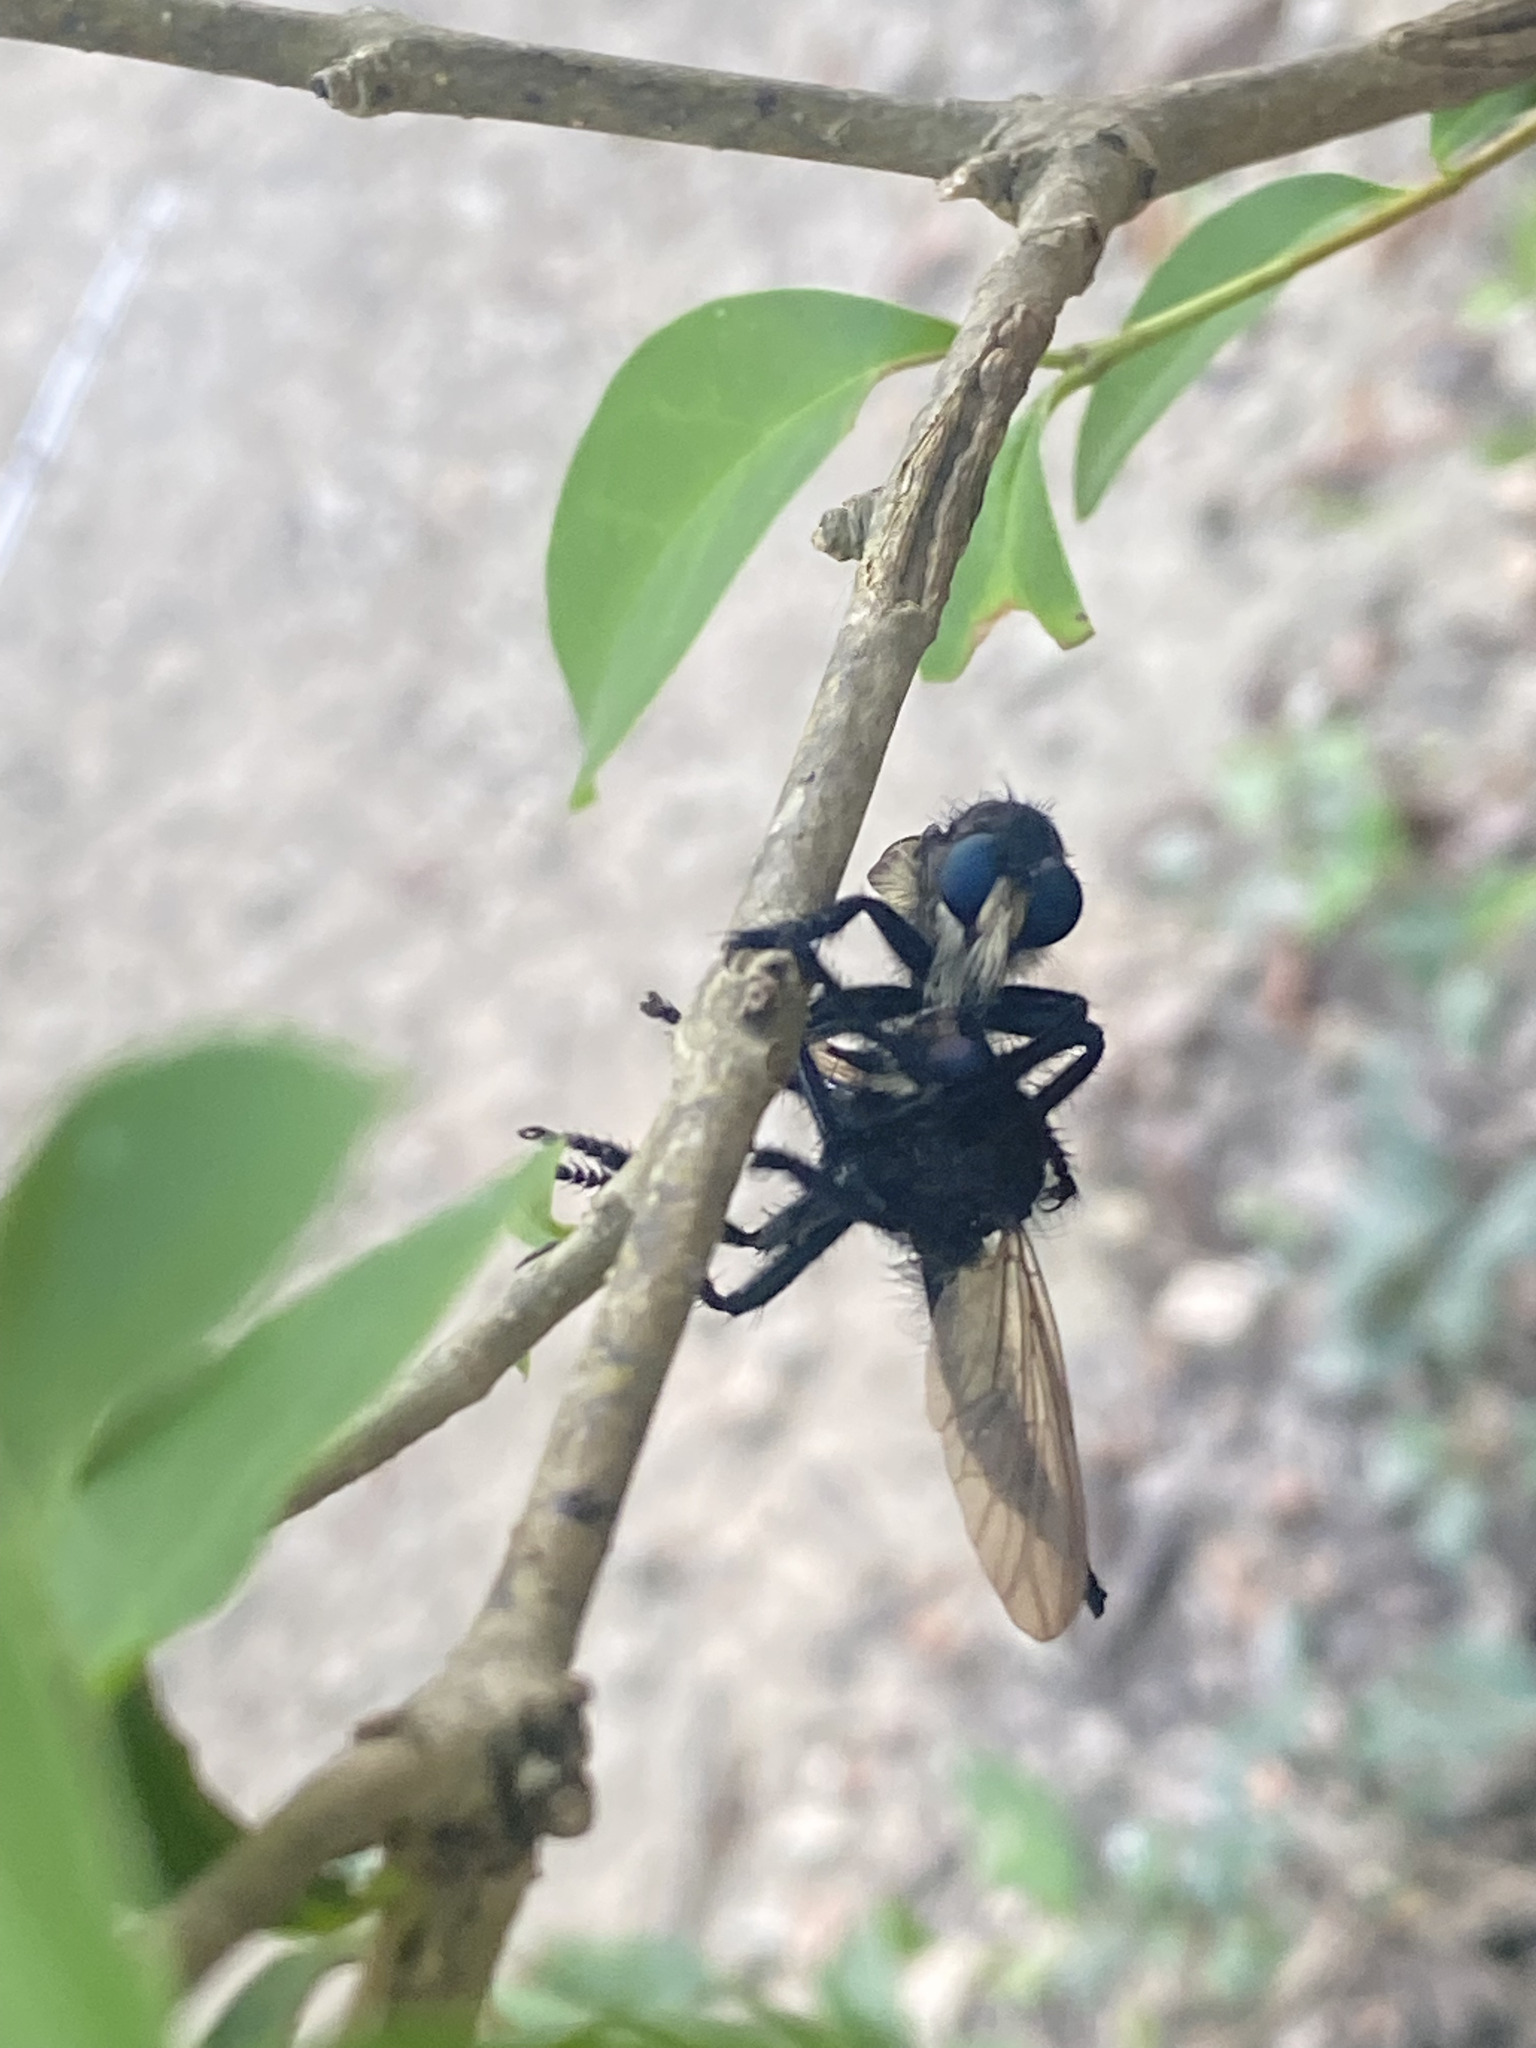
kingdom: Animalia
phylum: Arthropoda
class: Insecta
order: Diptera
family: Asilidae
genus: Promachus
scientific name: Promachus painteri
